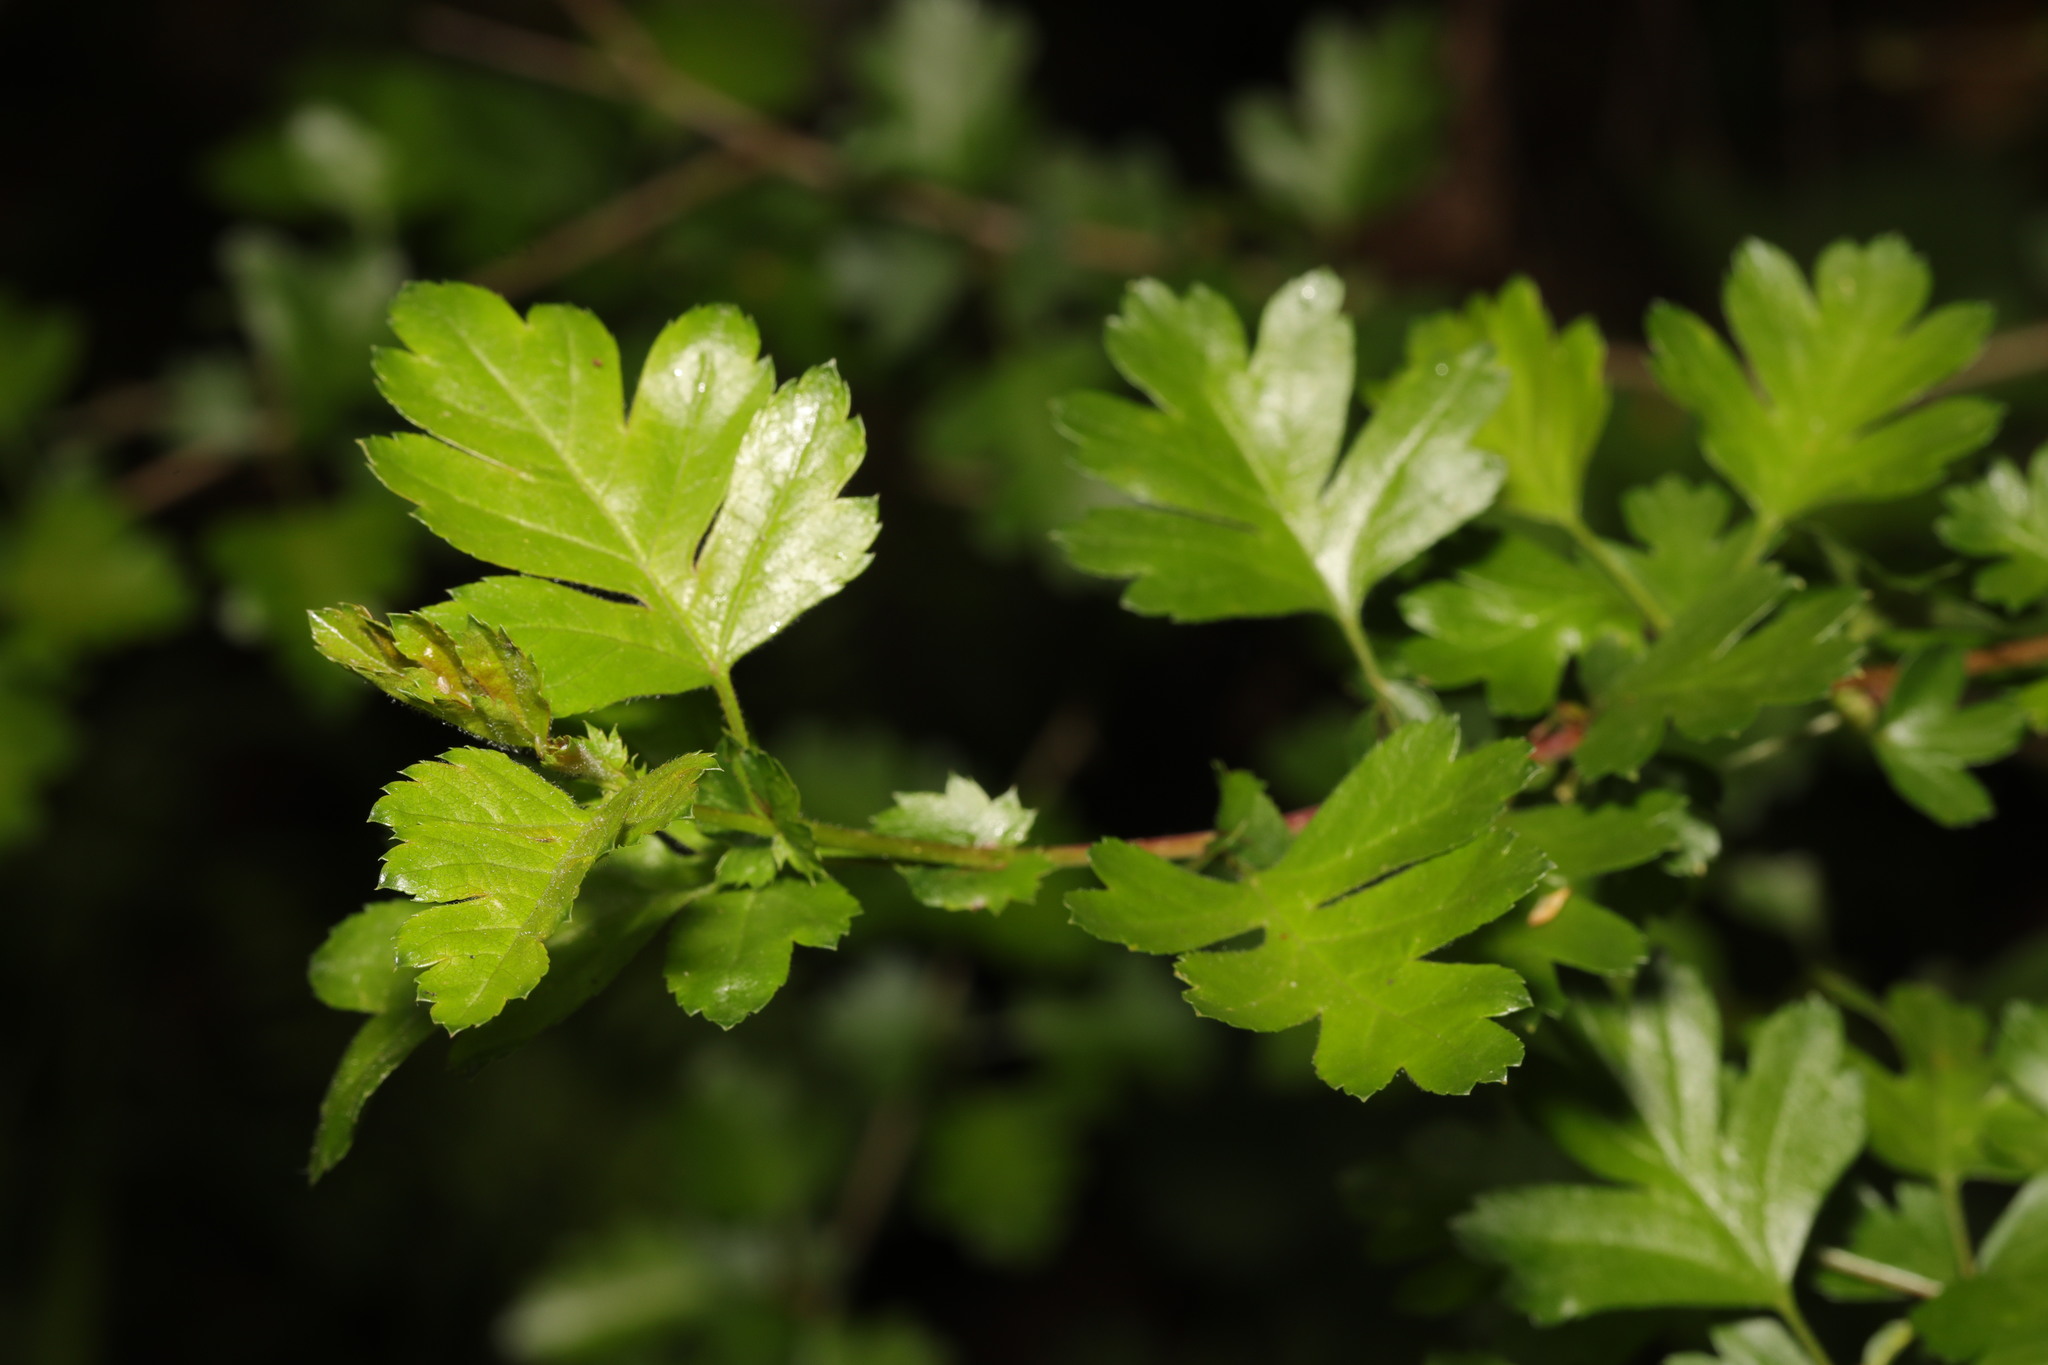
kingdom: Plantae
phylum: Tracheophyta
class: Magnoliopsida
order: Rosales
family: Rosaceae
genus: Crataegus
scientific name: Crataegus monogyna
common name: Hawthorn
